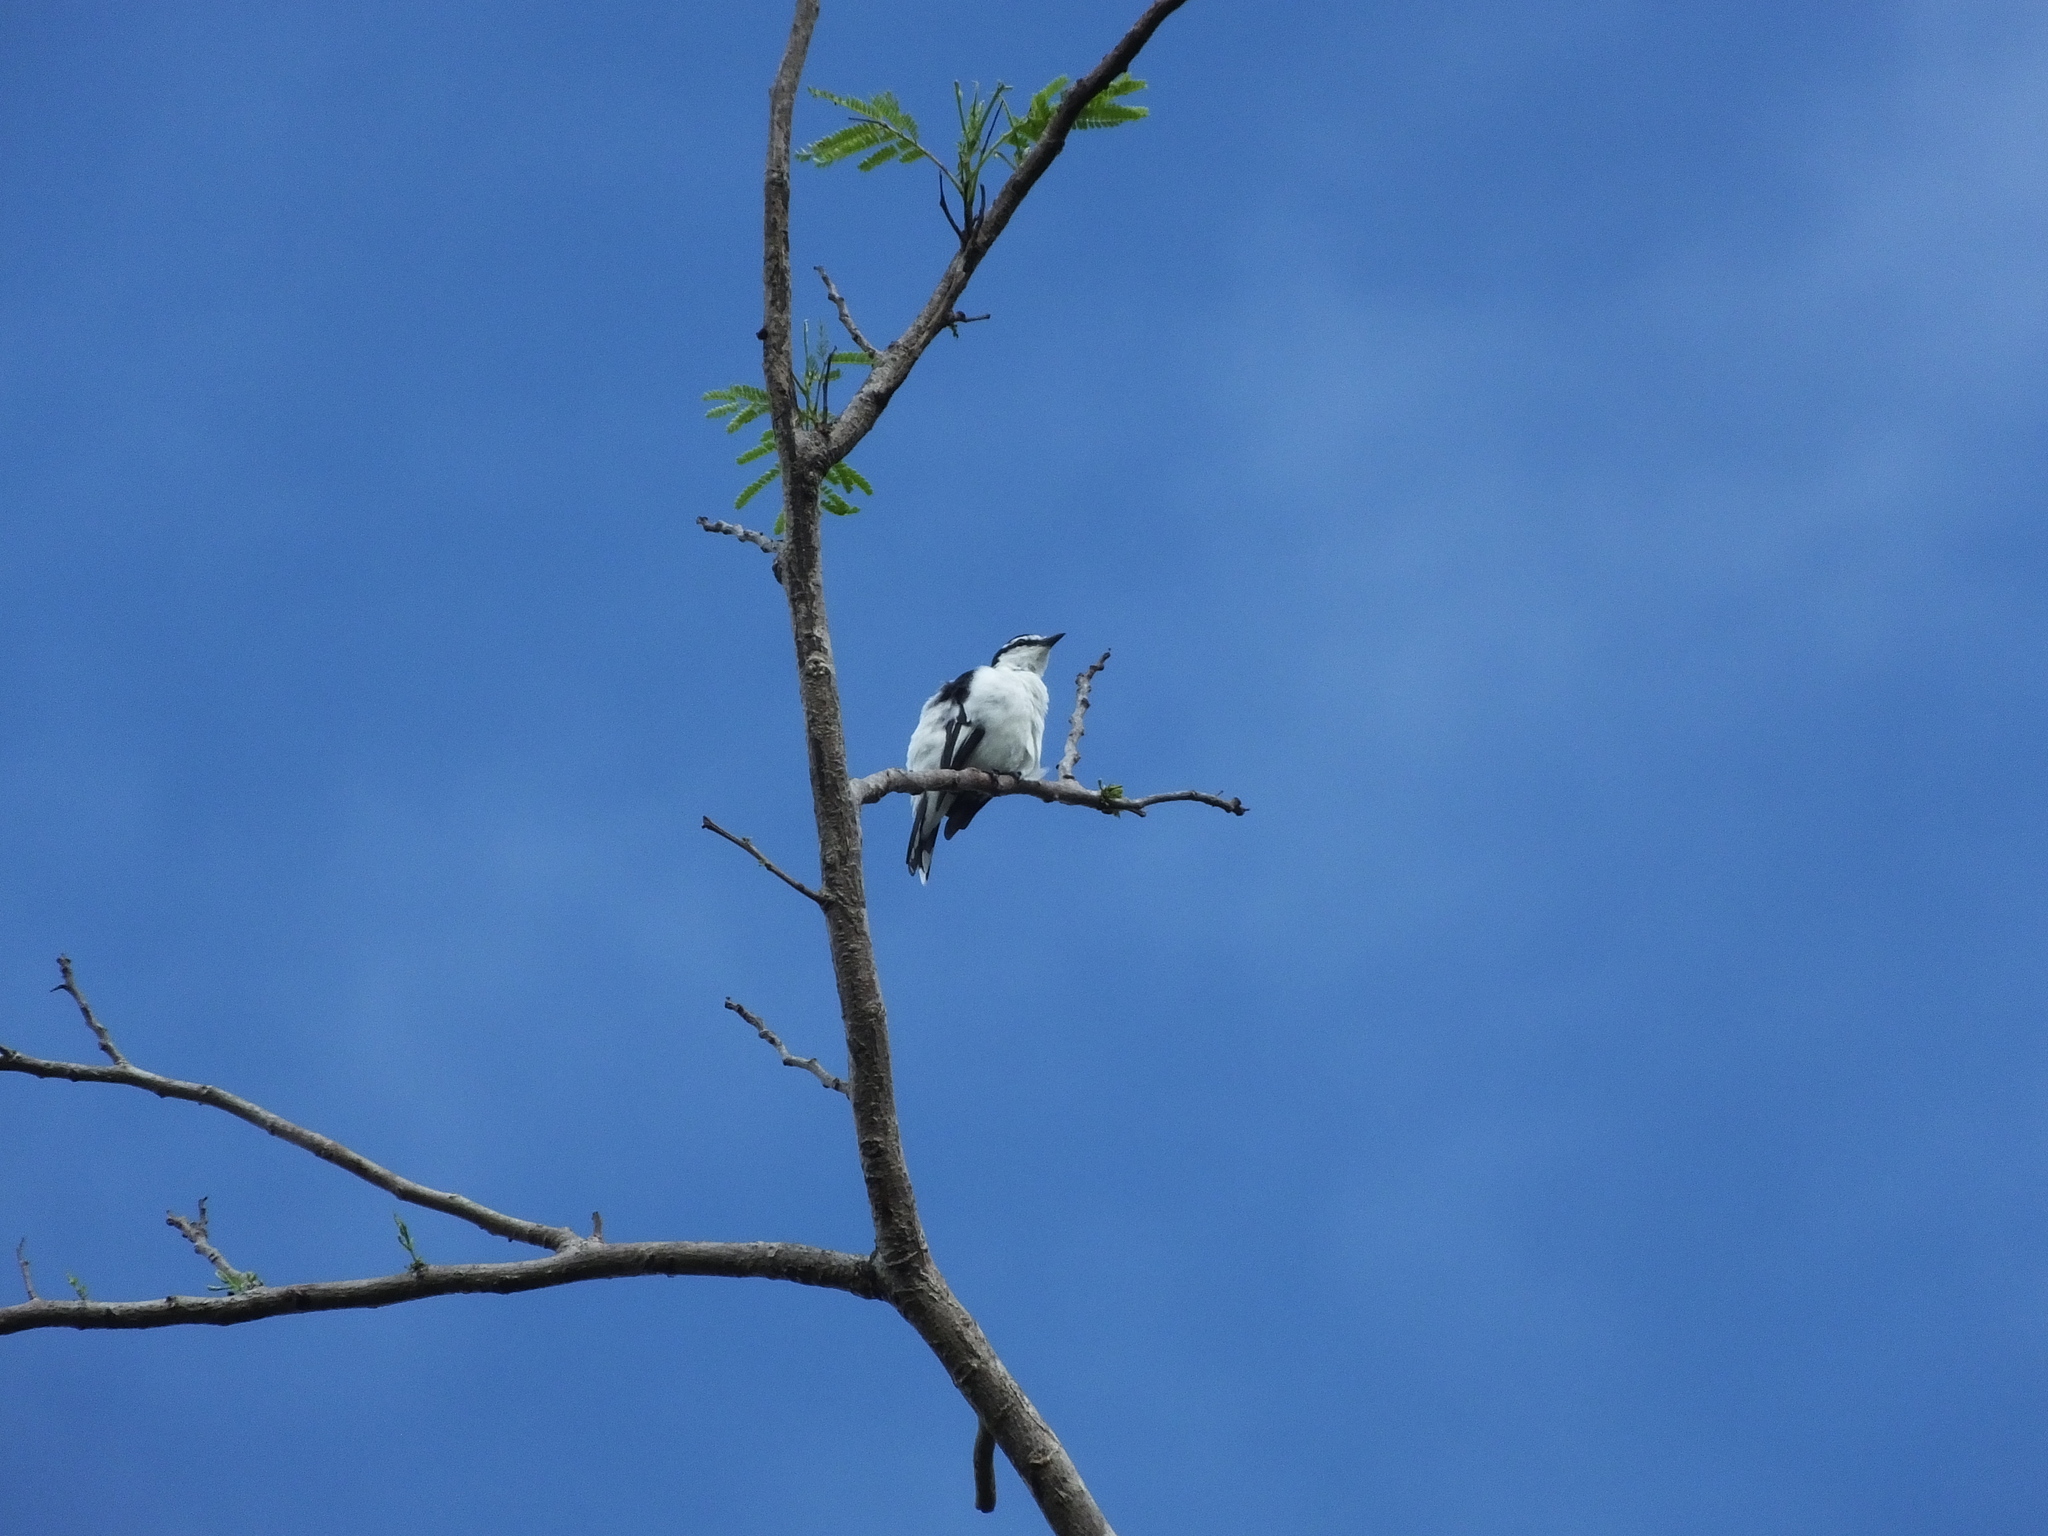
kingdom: Animalia
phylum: Chordata
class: Aves
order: Passeriformes
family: Campephagidae
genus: Lalage
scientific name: Lalage sueurii
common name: White-shouldered triller
